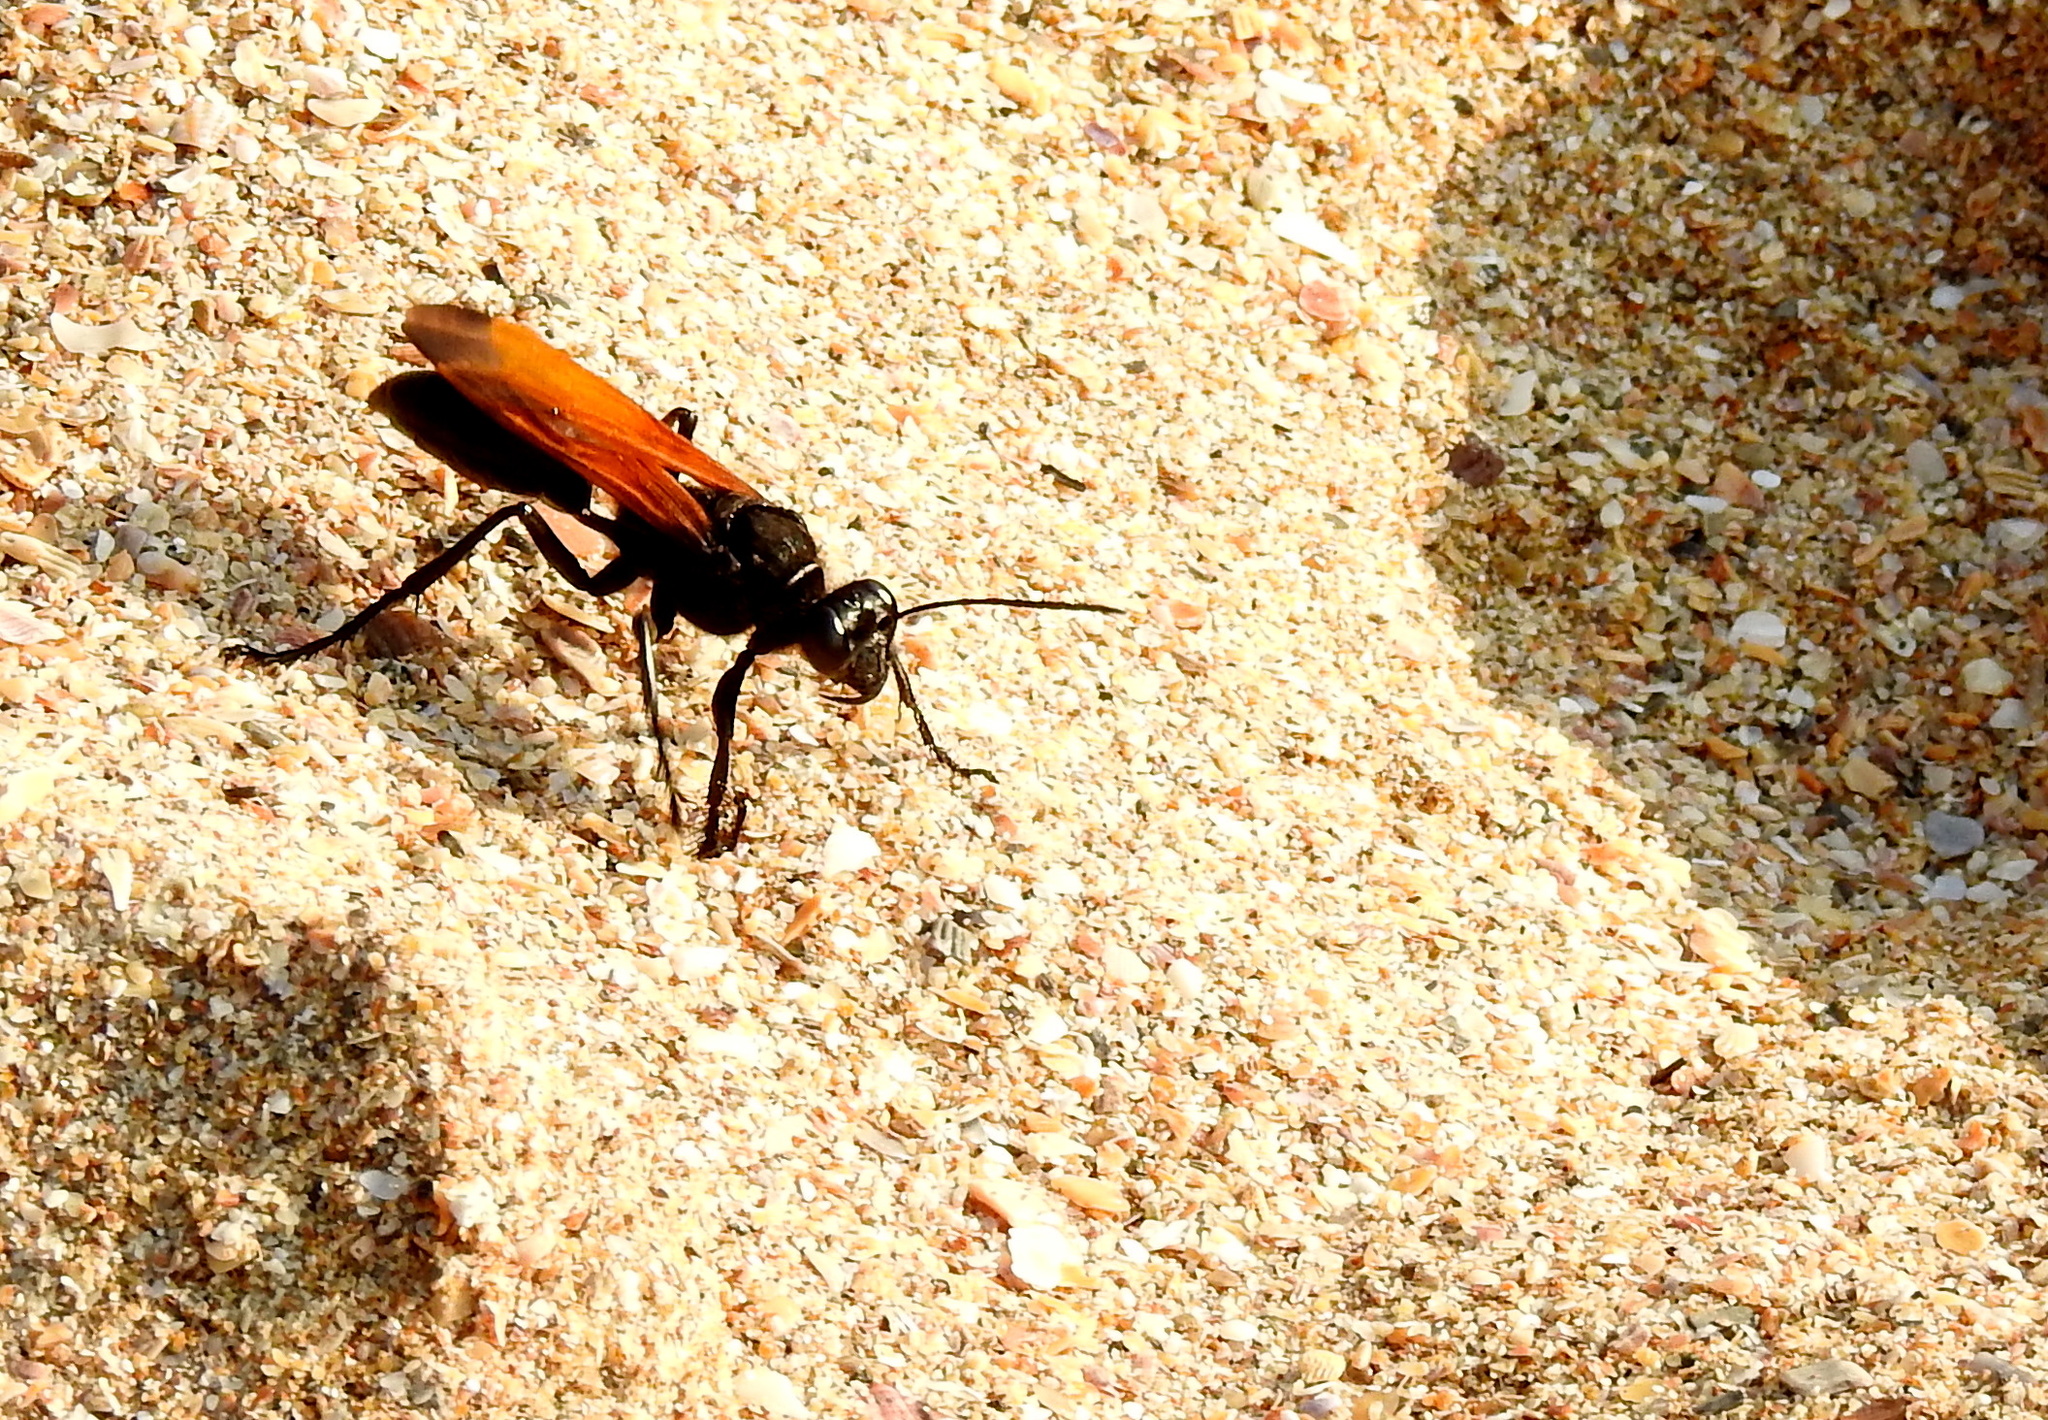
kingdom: Animalia
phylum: Arthropoda
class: Insecta
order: Hymenoptera
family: Sphecidae
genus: Sphex
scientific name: Sphex praedator
